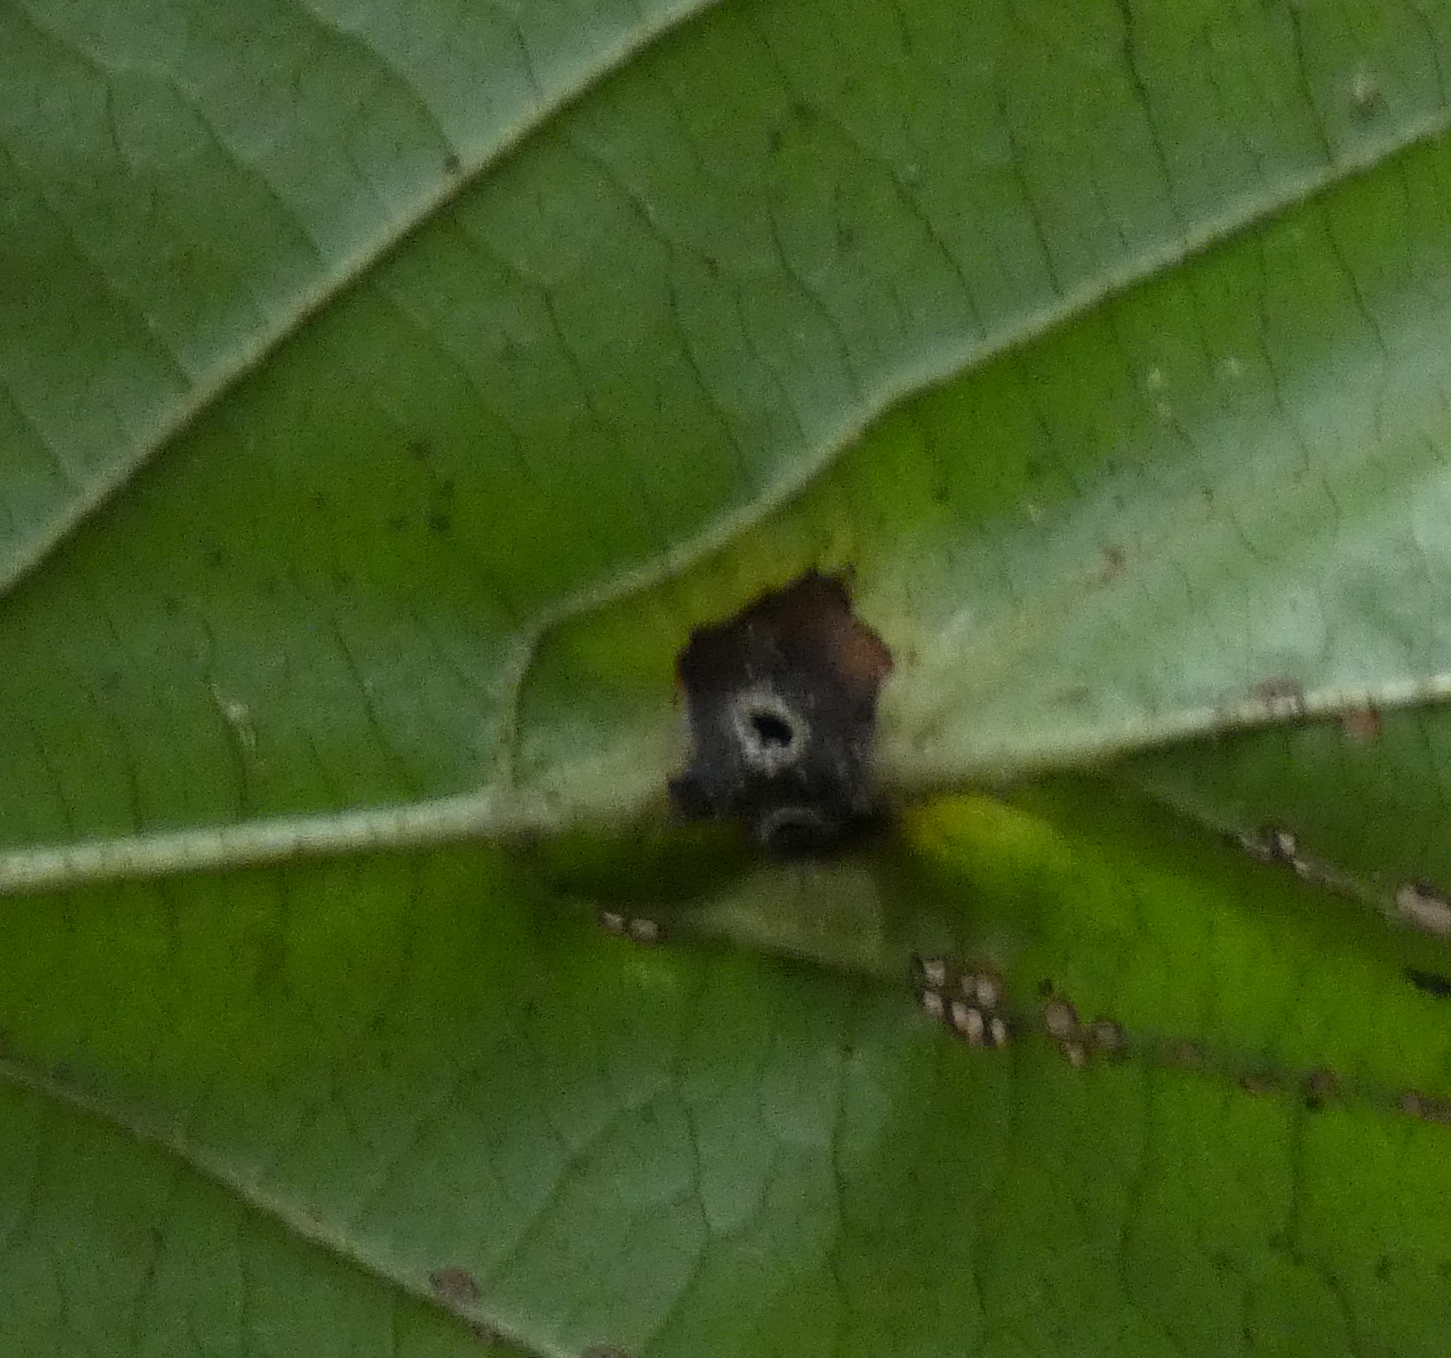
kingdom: Animalia
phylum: Arthropoda
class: Insecta
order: Hemiptera
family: Aphididae
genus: Hormaphis
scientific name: Hormaphis hamamelidis
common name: Witch-hazel cone gall aphid
